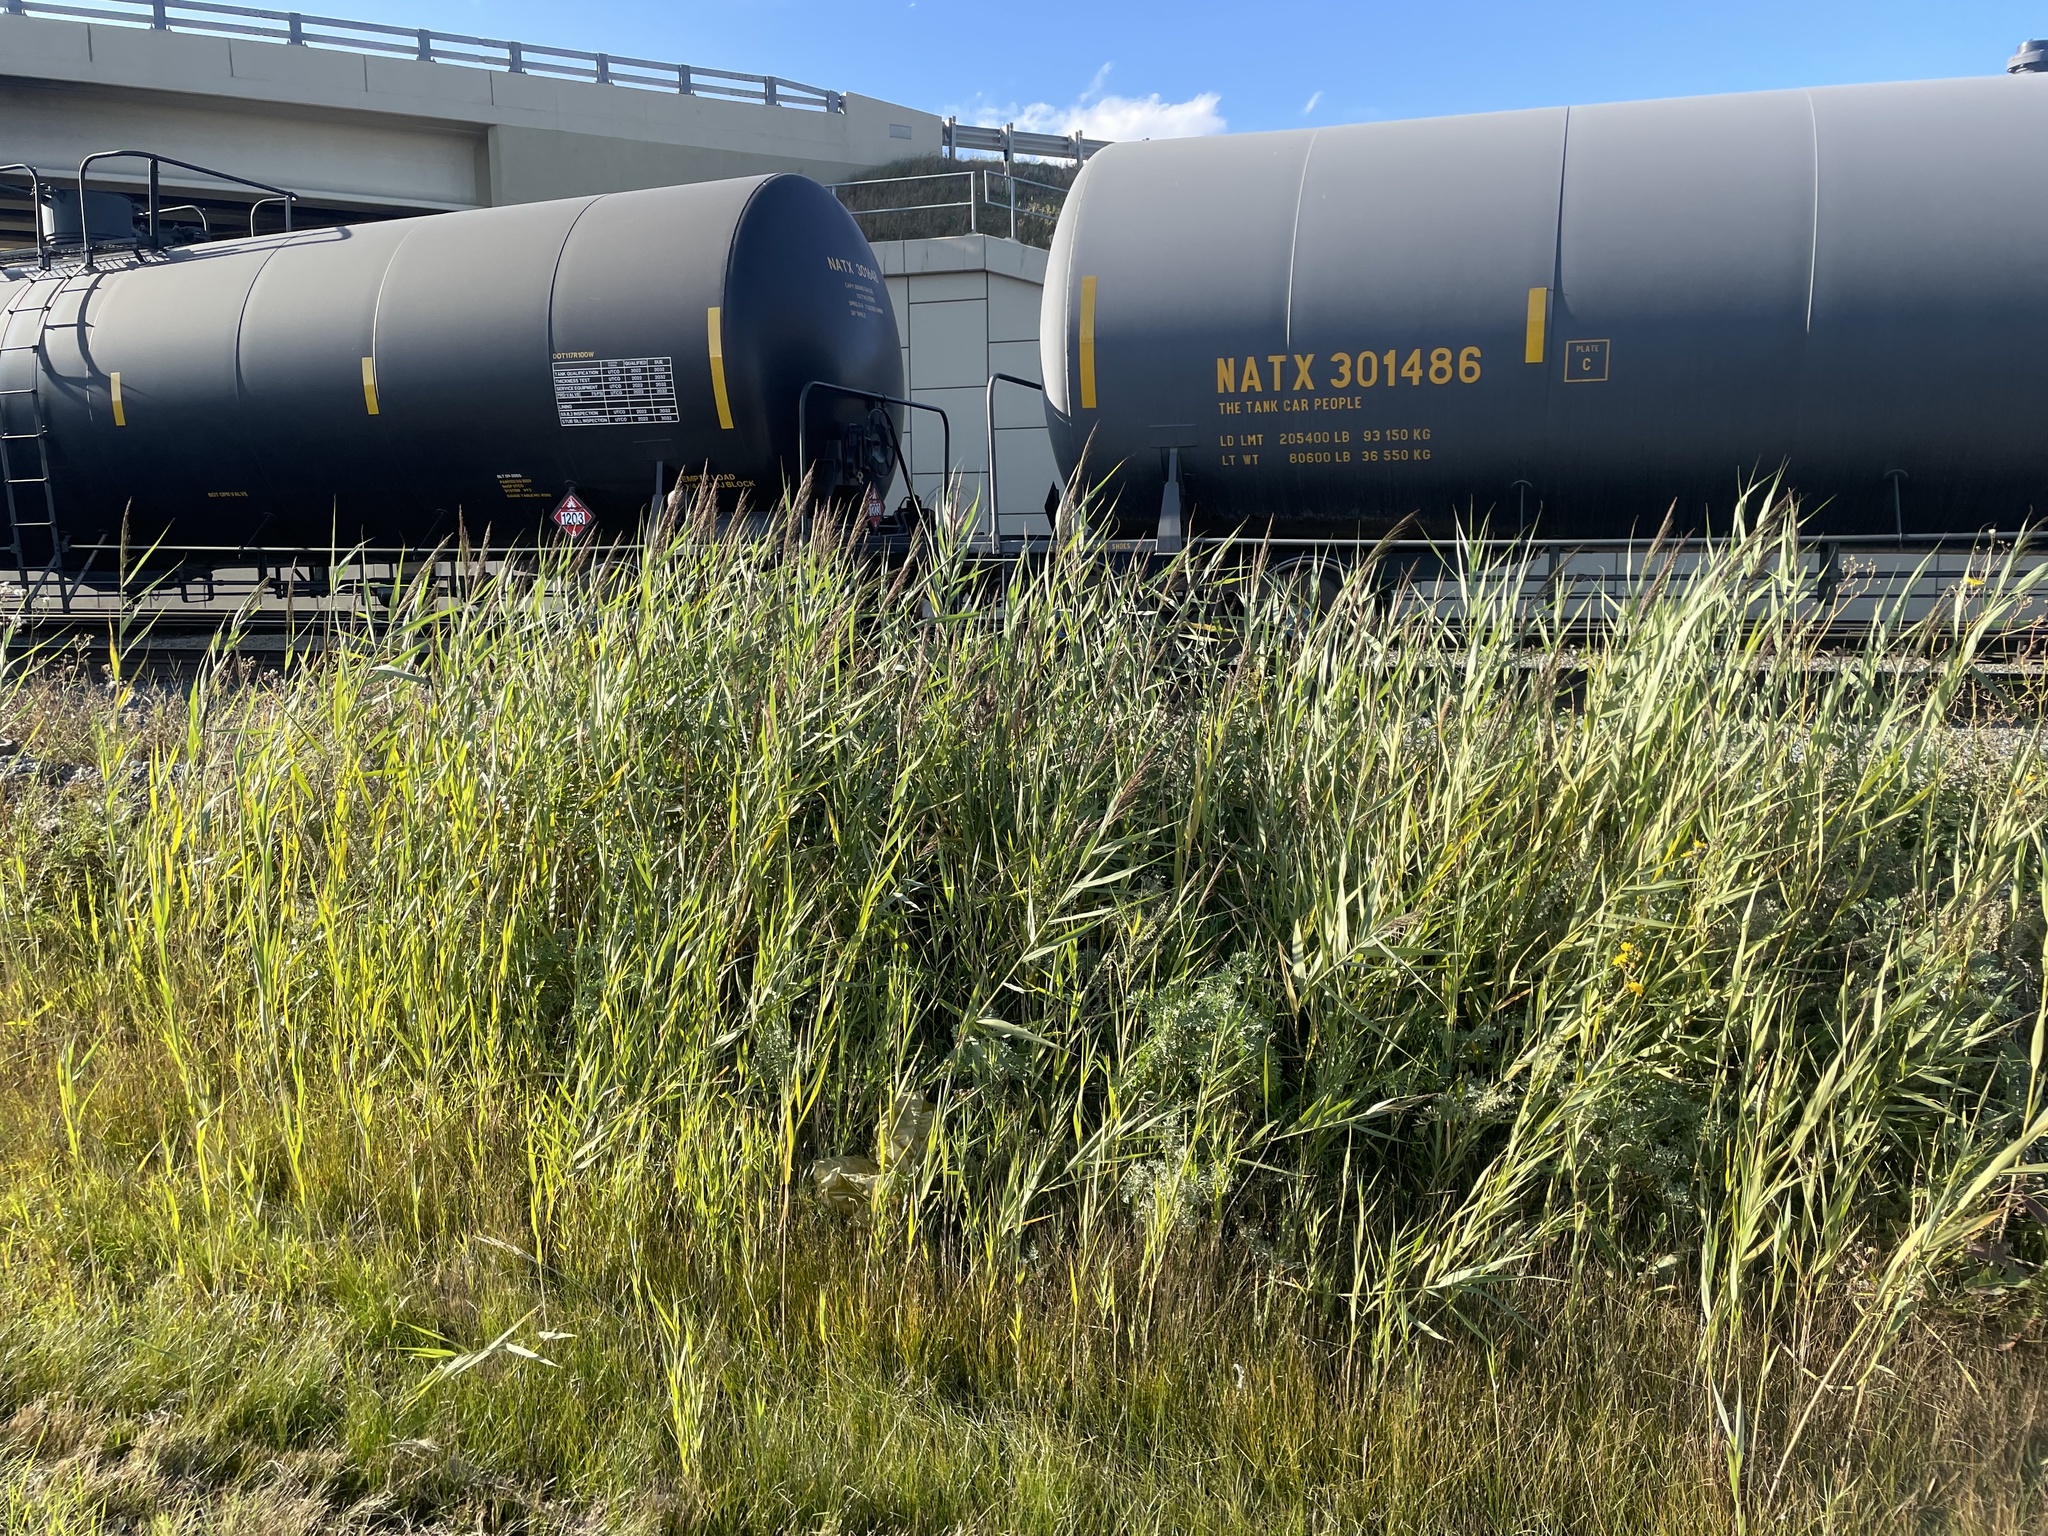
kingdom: Plantae
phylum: Tracheophyta
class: Liliopsida
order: Poales
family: Poaceae
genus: Phragmites
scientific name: Phragmites australis
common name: Common reed
